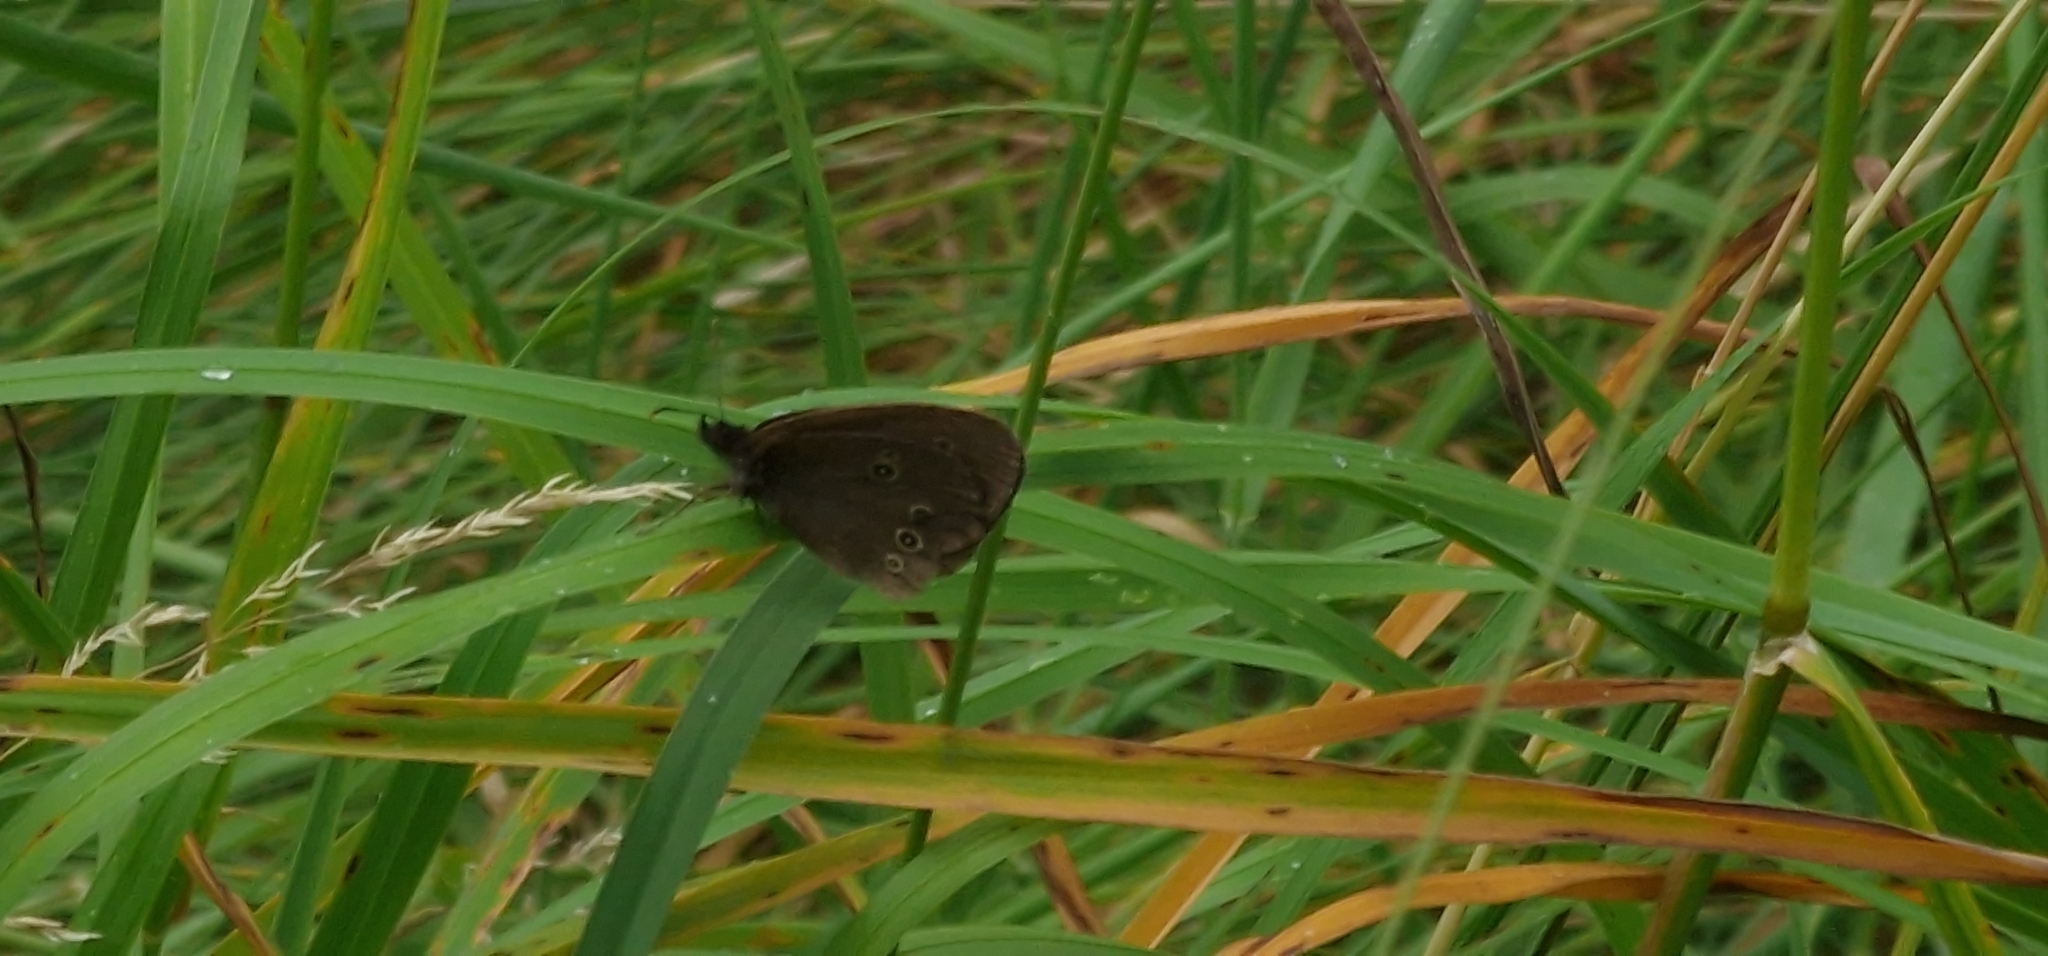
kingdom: Animalia
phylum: Arthropoda
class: Insecta
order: Lepidoptera
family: Nymphalidae
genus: Aphantopus
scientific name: Aphantopus hyperantus
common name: Ringlet
